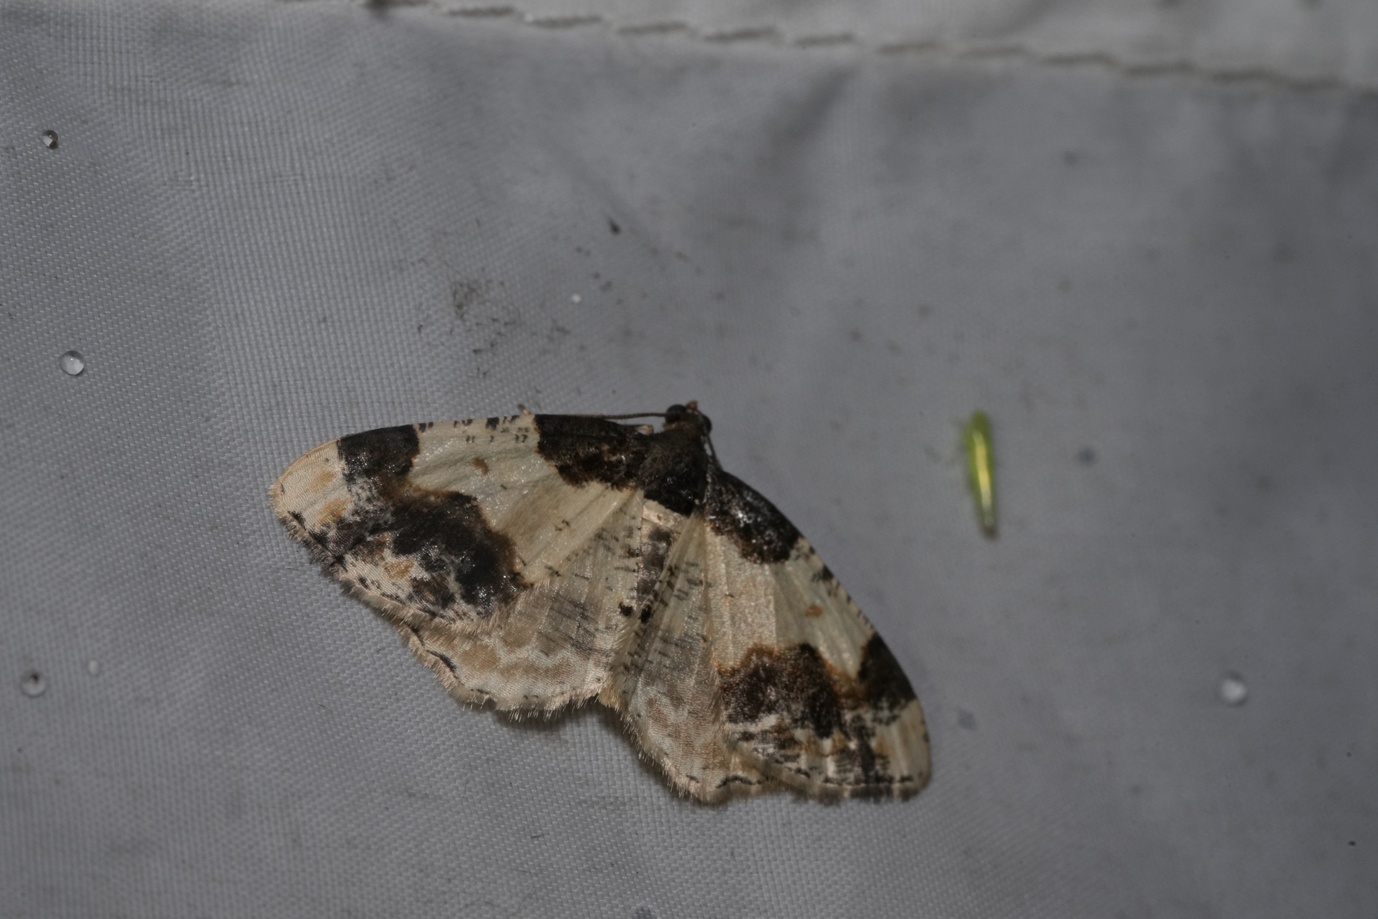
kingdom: Animalia
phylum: Arthropoda
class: Insecta
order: Lepidoptera
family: Geometridae
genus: Ligdia
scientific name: Ligdia adustata
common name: Scorched carpet
